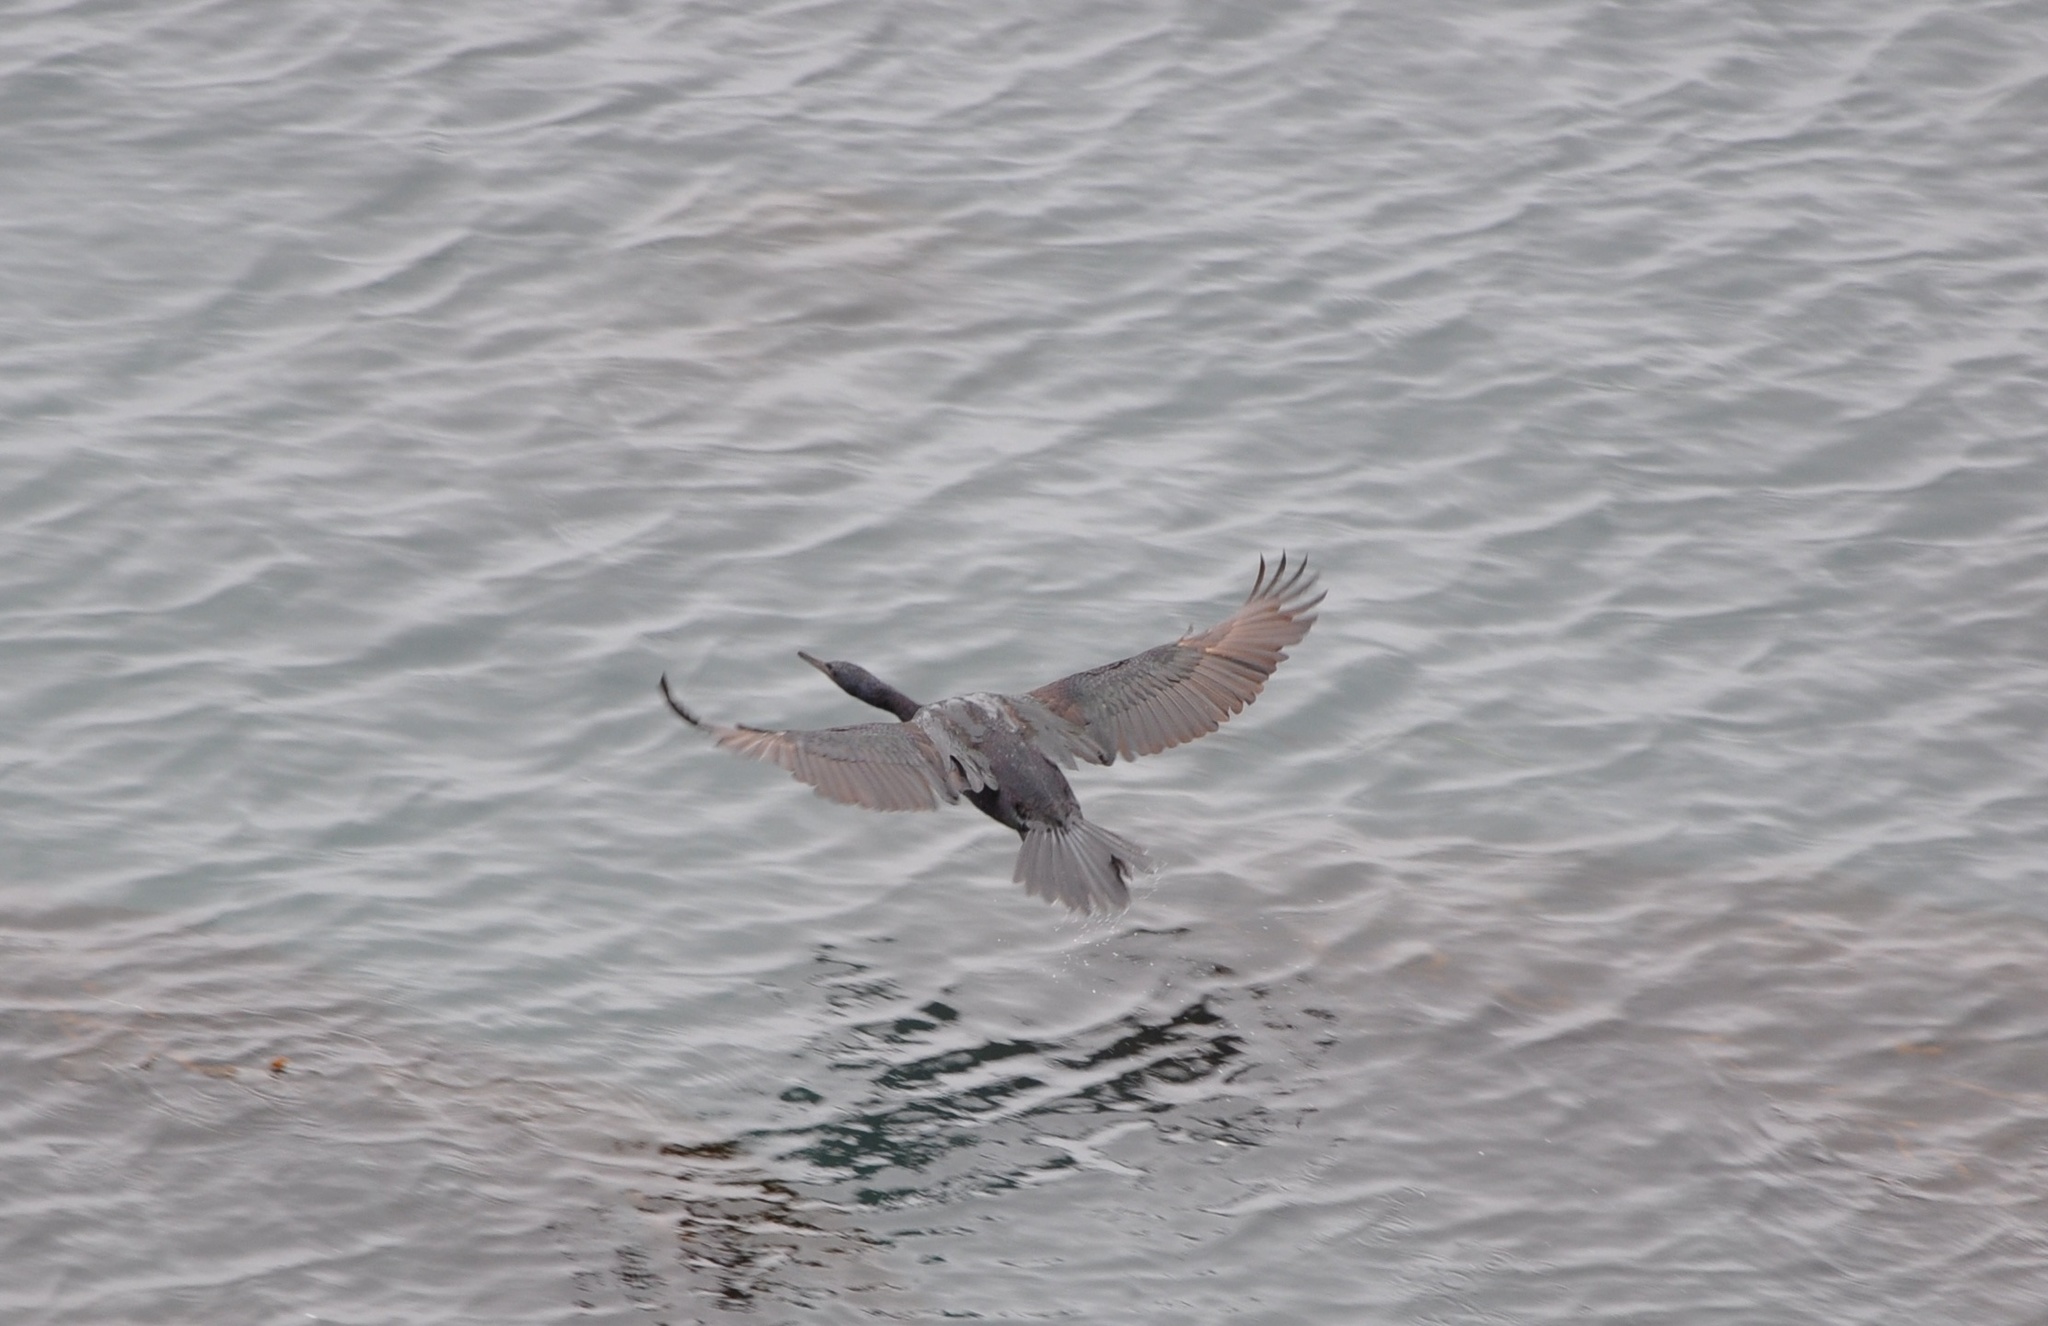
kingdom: Animalia
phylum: Chordata
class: Aves
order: Suliformes
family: Phalacrocoracidae
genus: Phalacrocorax
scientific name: Phalacrocorax pelagicus
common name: Pelagic cormorant
